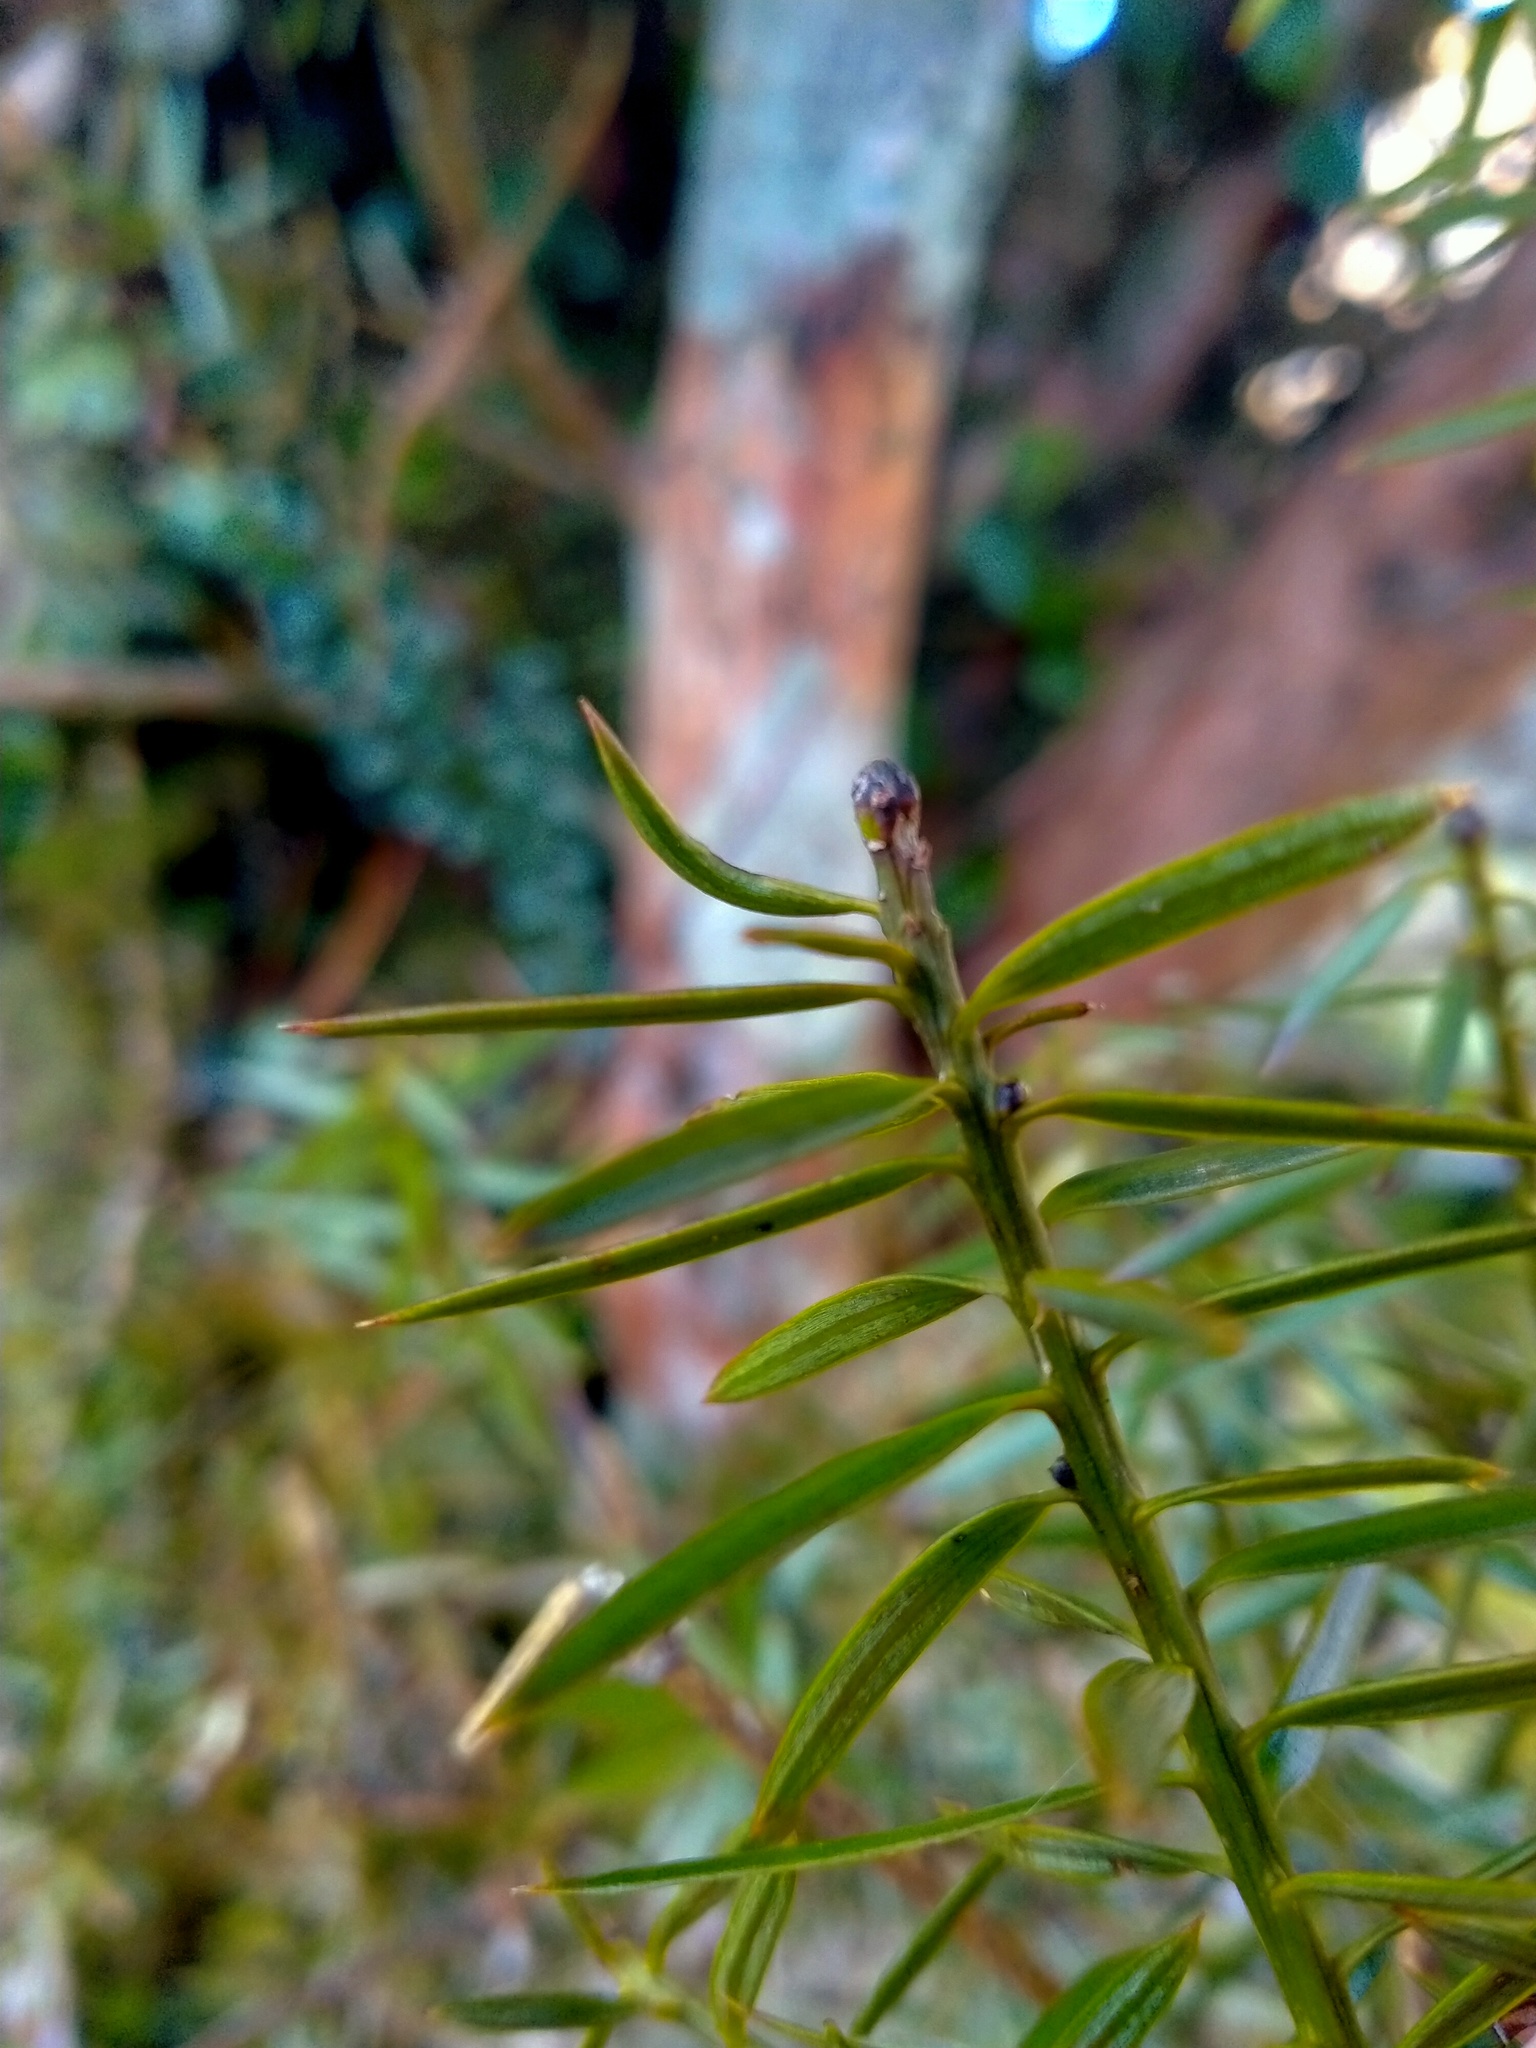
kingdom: Plantae
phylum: Tracheophyta
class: Pinopsida
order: Pinales
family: Podocarpaceae
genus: Podocarpus
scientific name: Podocarpus totara
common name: Totara
